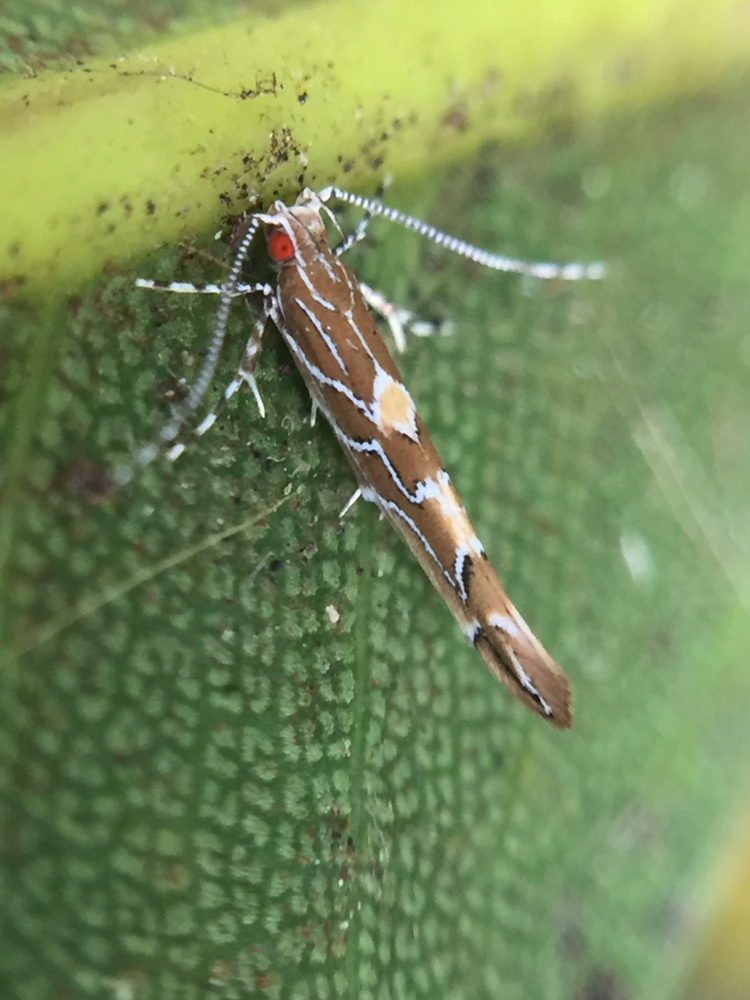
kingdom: Animalia
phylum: Arthropoda
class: Insecta
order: Lepidoptera
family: Cosmopterigidae
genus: Pyroderces
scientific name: Pyroderces apparitella
